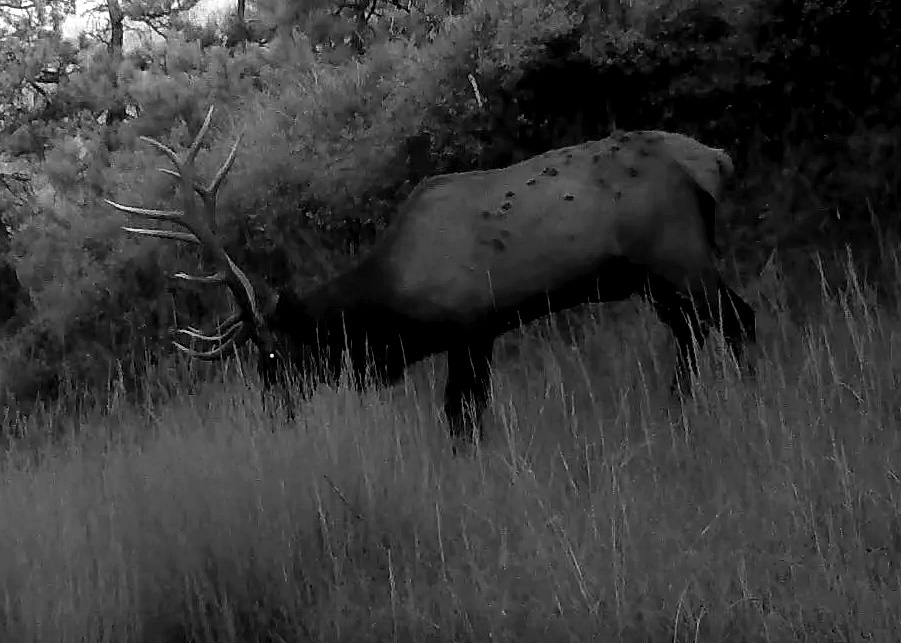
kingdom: Animalia
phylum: Chordata
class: Mammalia
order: Artiodactyla
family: Cervidae
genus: Cervus
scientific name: Cervus elaphus
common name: Red deer
